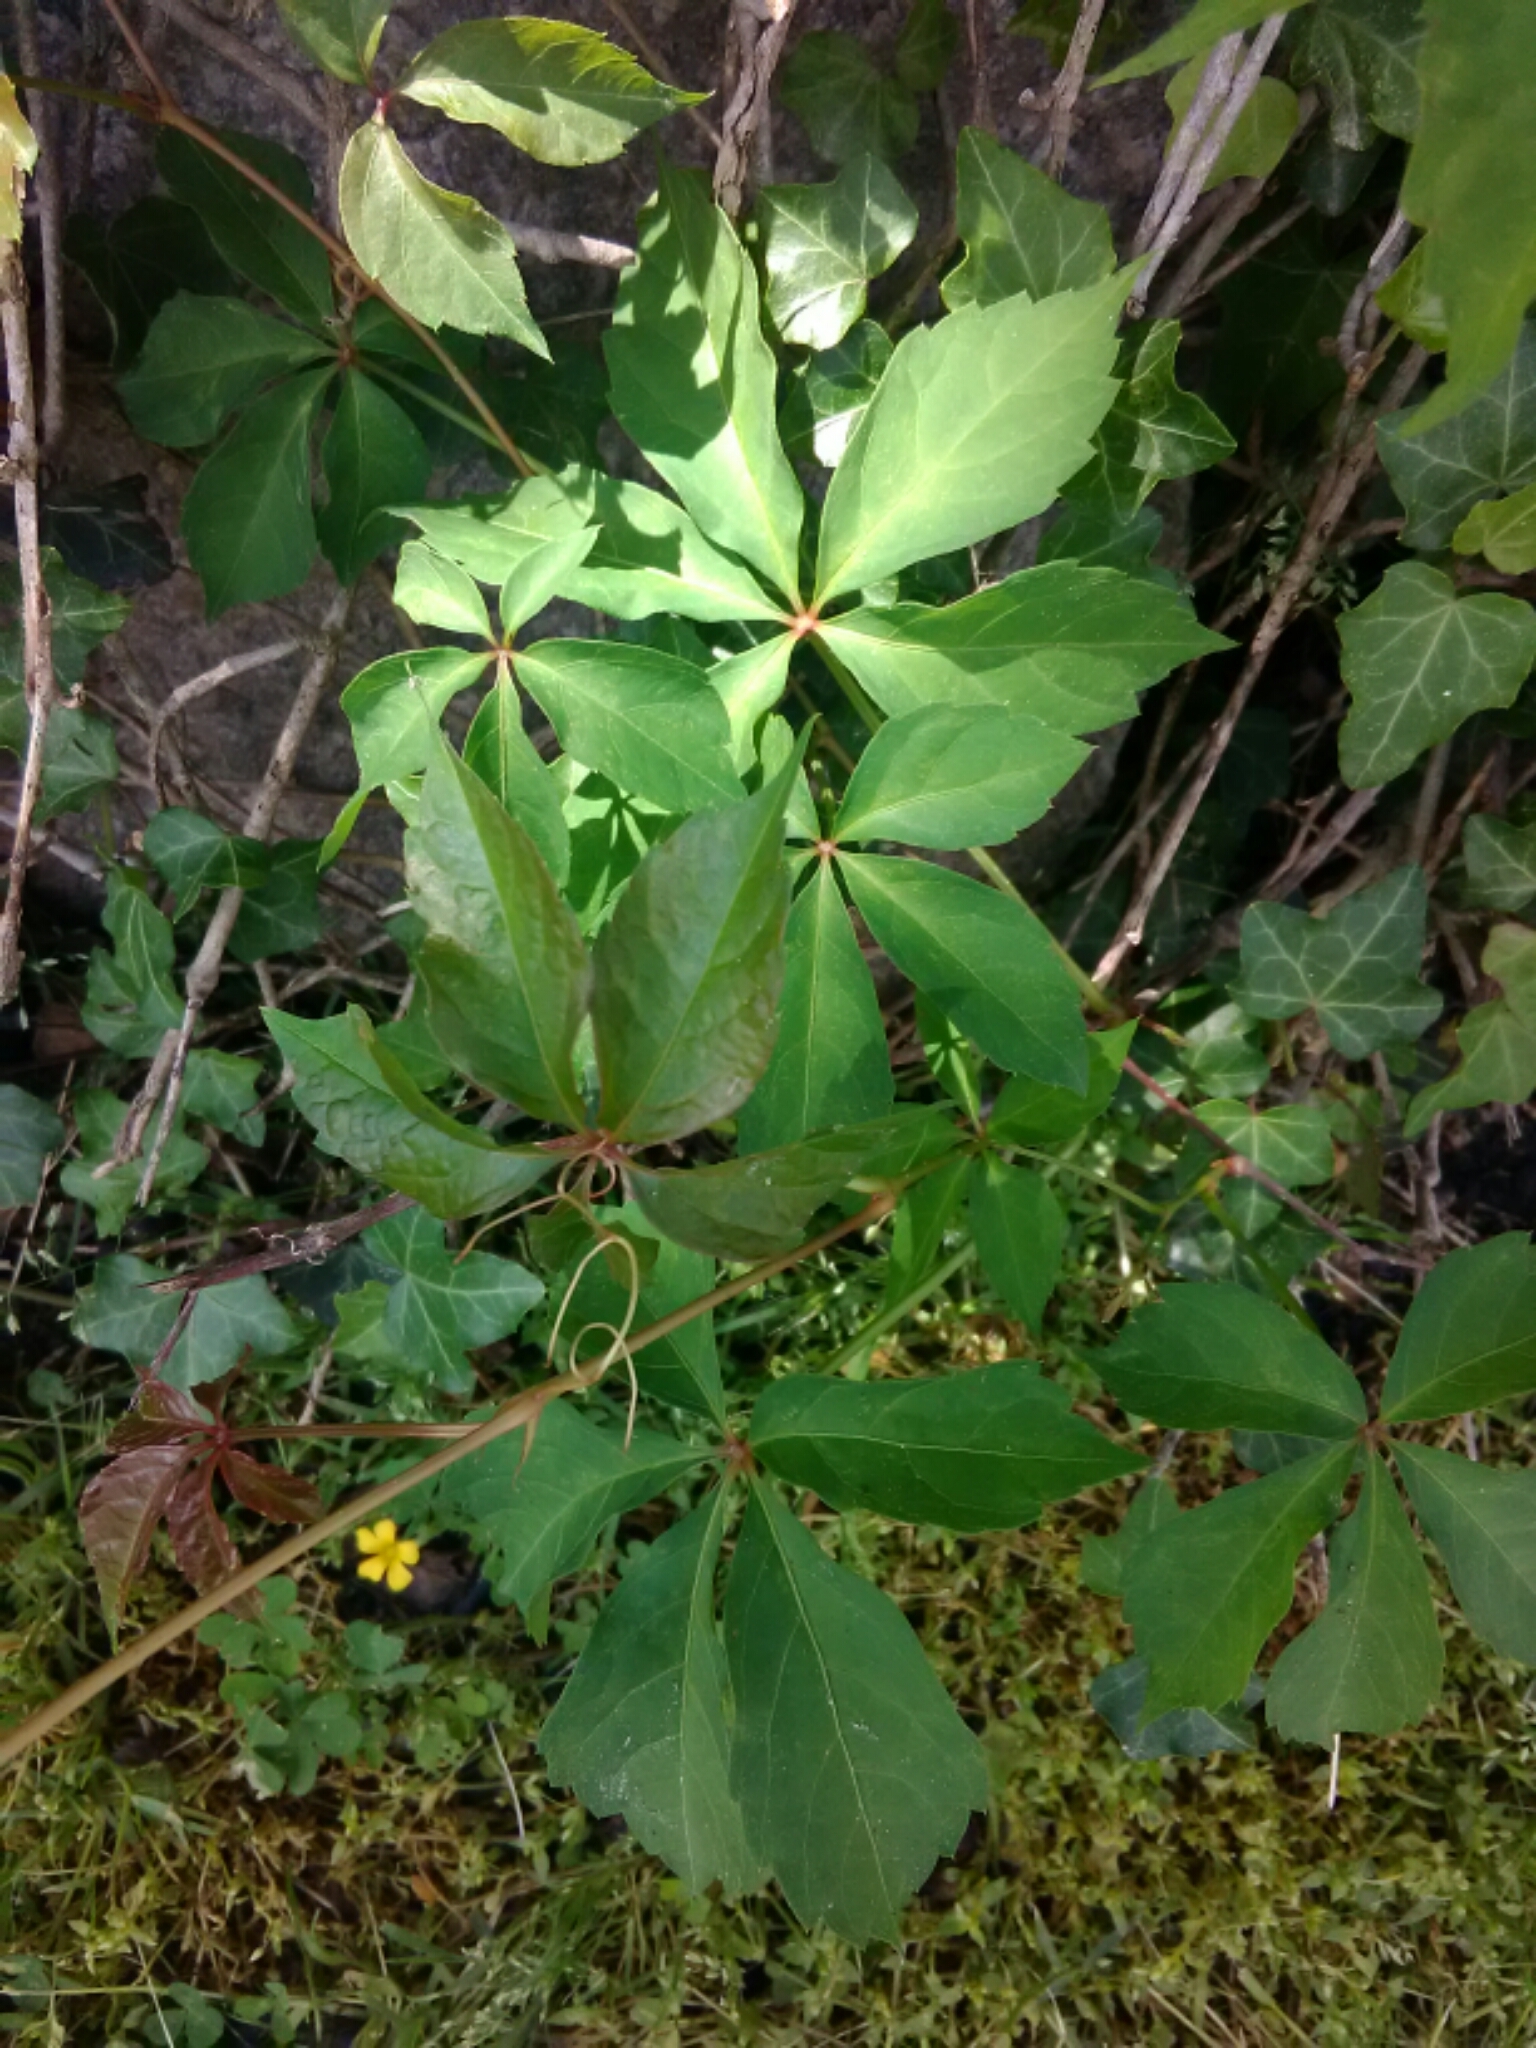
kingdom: Plantae
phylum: Tracheophyta
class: Magnoliopsida
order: Vitales
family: Vitaceae
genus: Parthenocissus
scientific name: Parthenocissus quinquefolia
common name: Virginia-creeper
